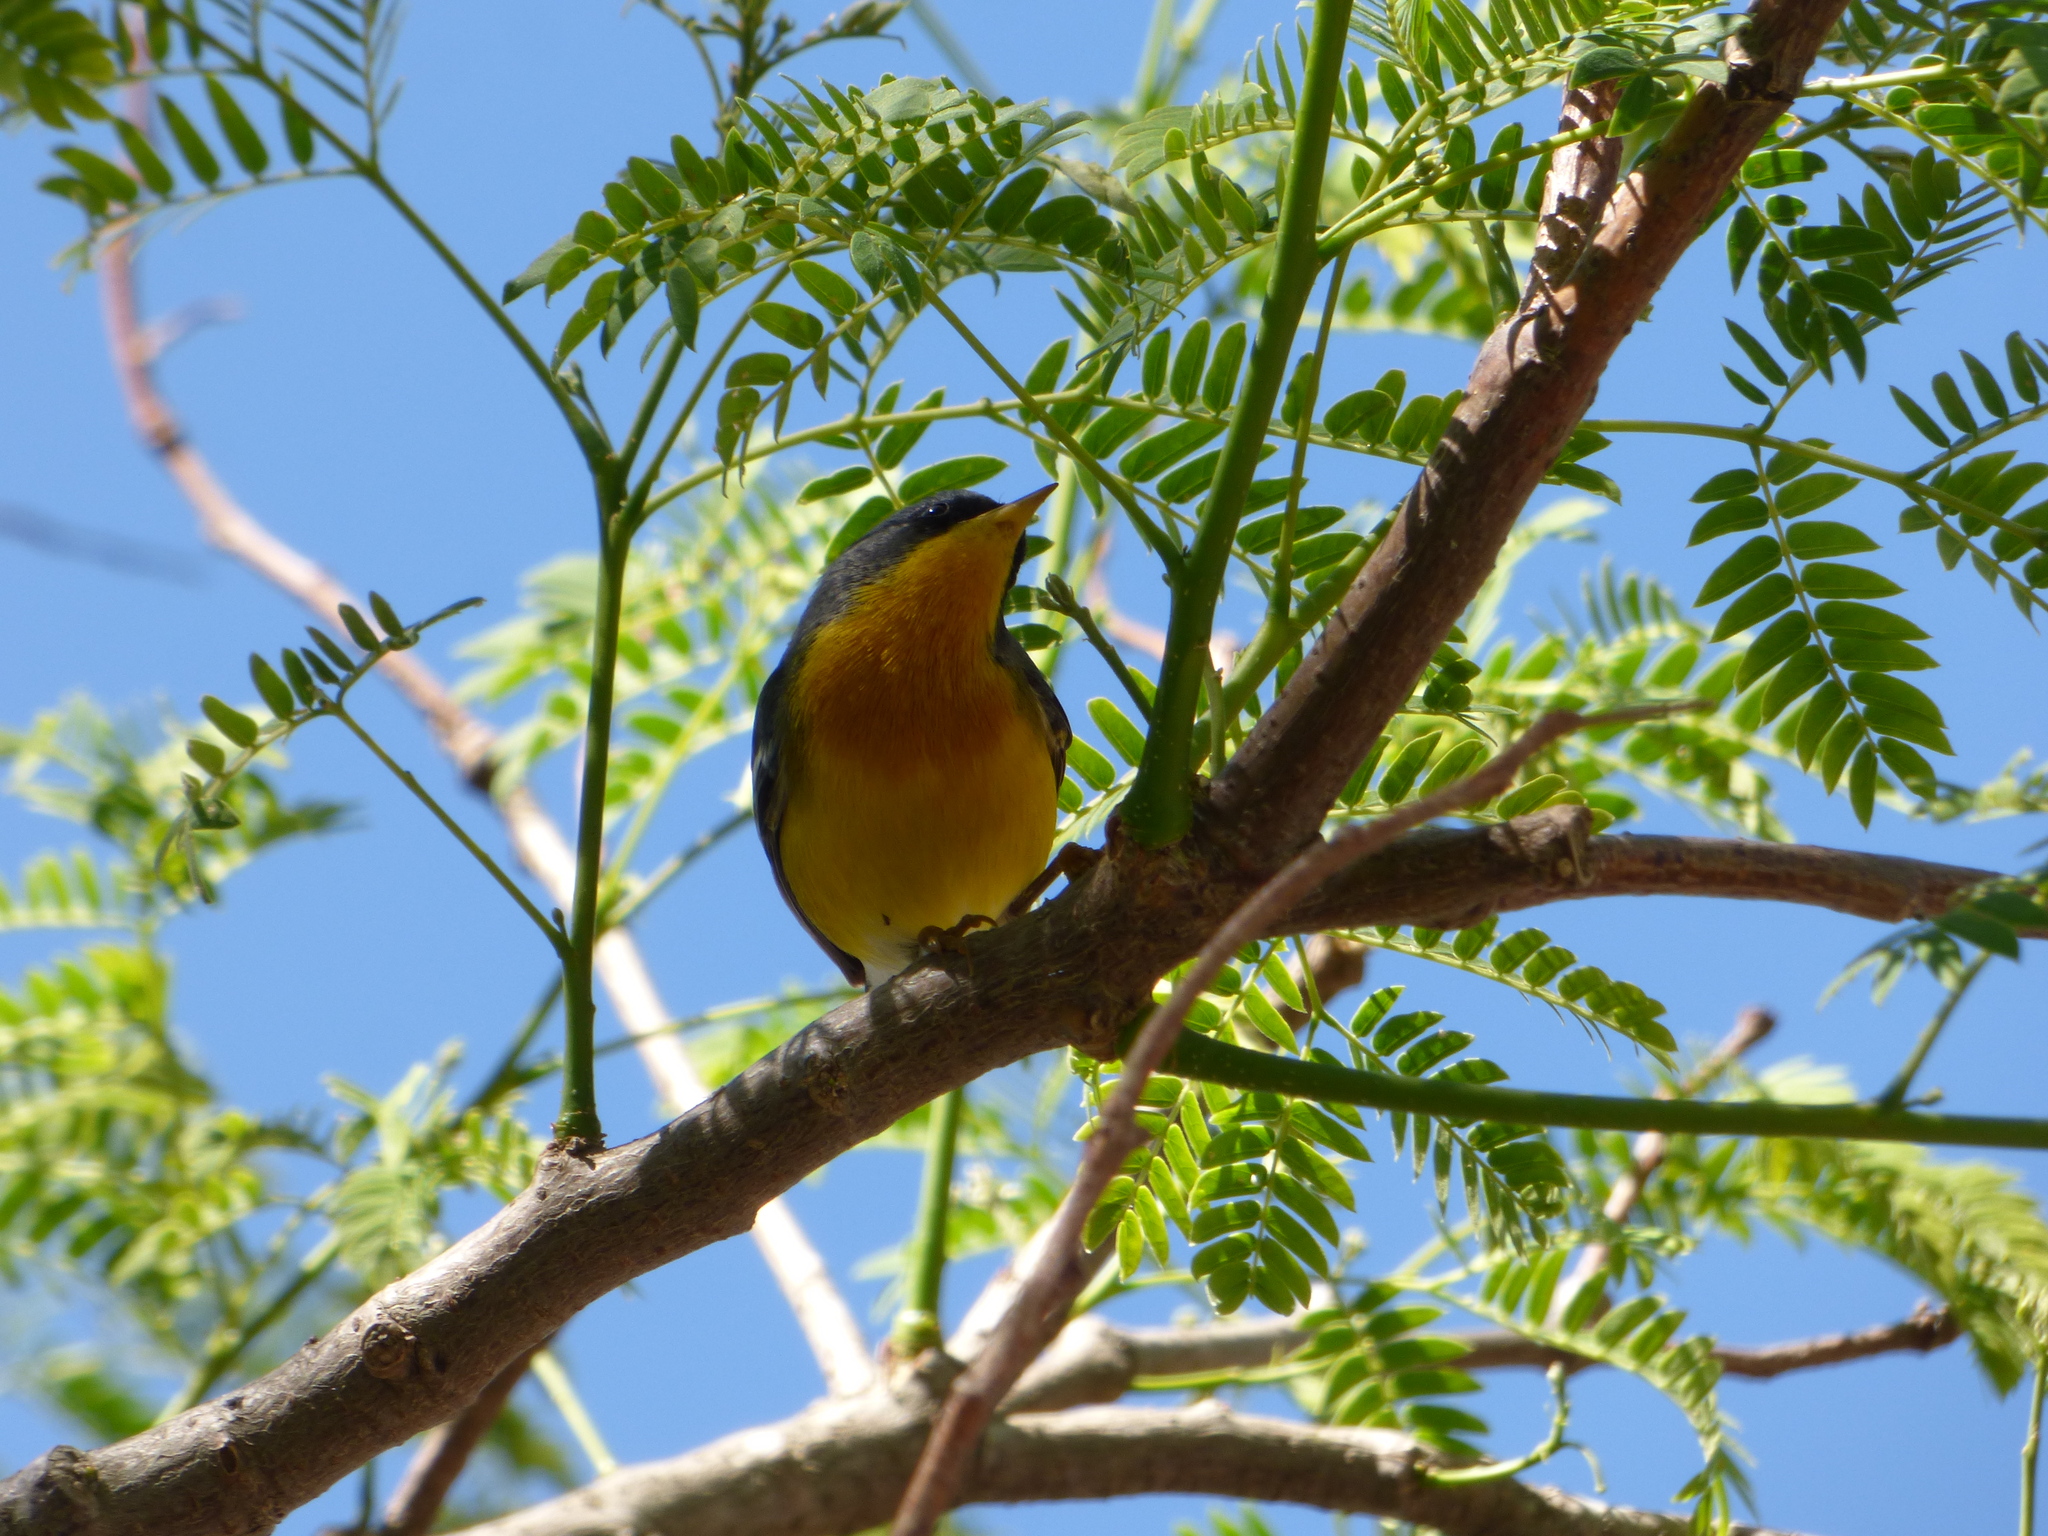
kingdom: Animalia
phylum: Chordata
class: Aves
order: Passeriformes
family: Parulidae
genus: Setophaga
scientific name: Setophaga pitiayumi
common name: Tropical parula
